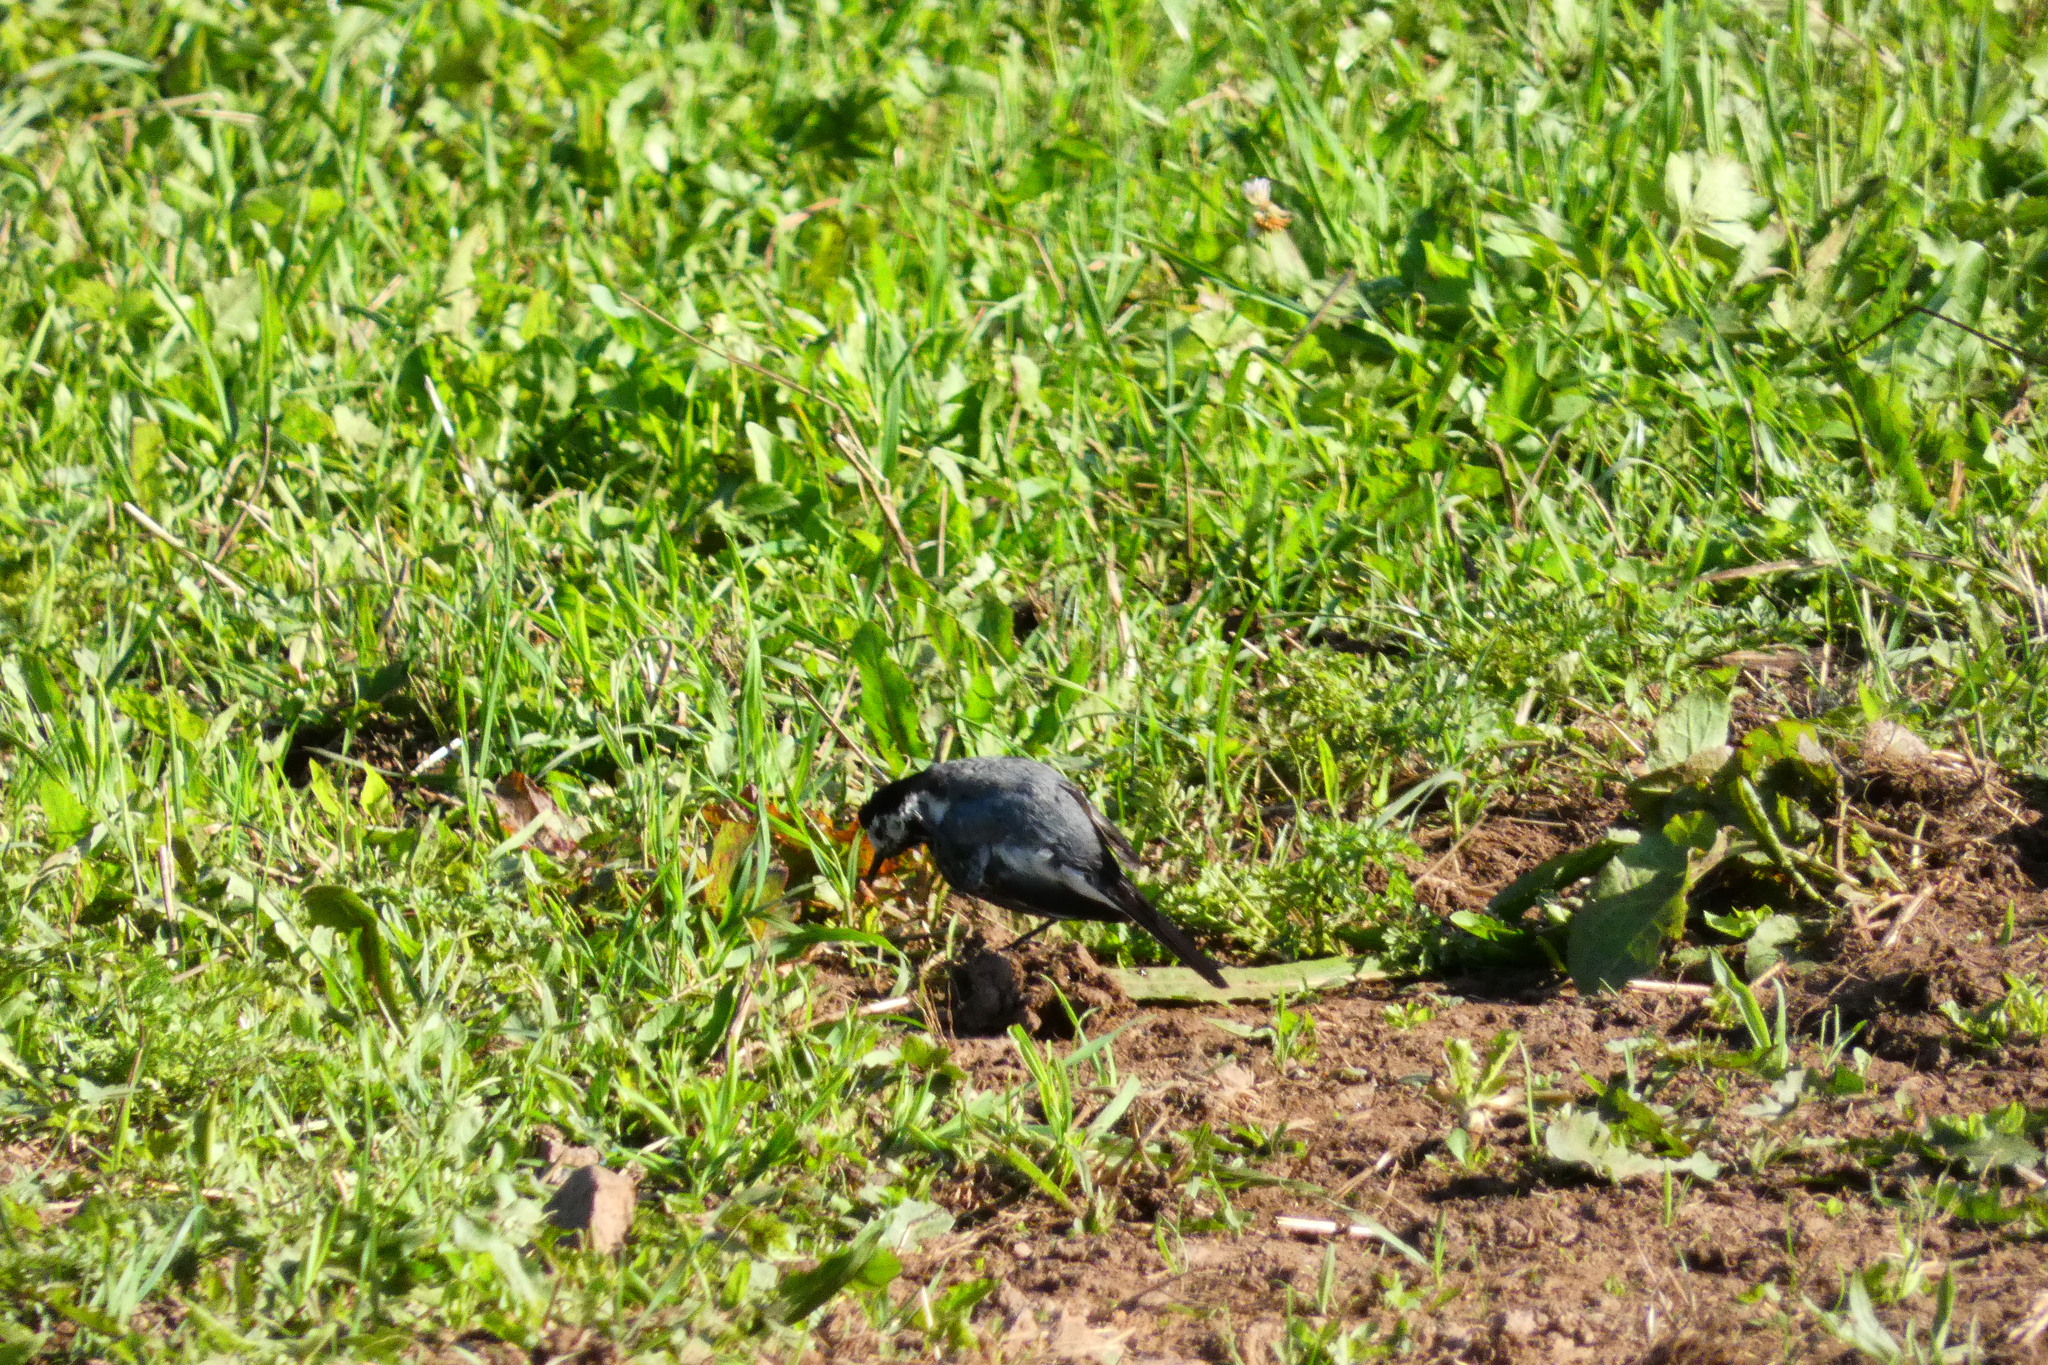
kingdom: Animalia
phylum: Chordata
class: Aves
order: Passeriformes
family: Motacillidae
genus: Motacilla
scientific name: Motacilla alba
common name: White wagtail
